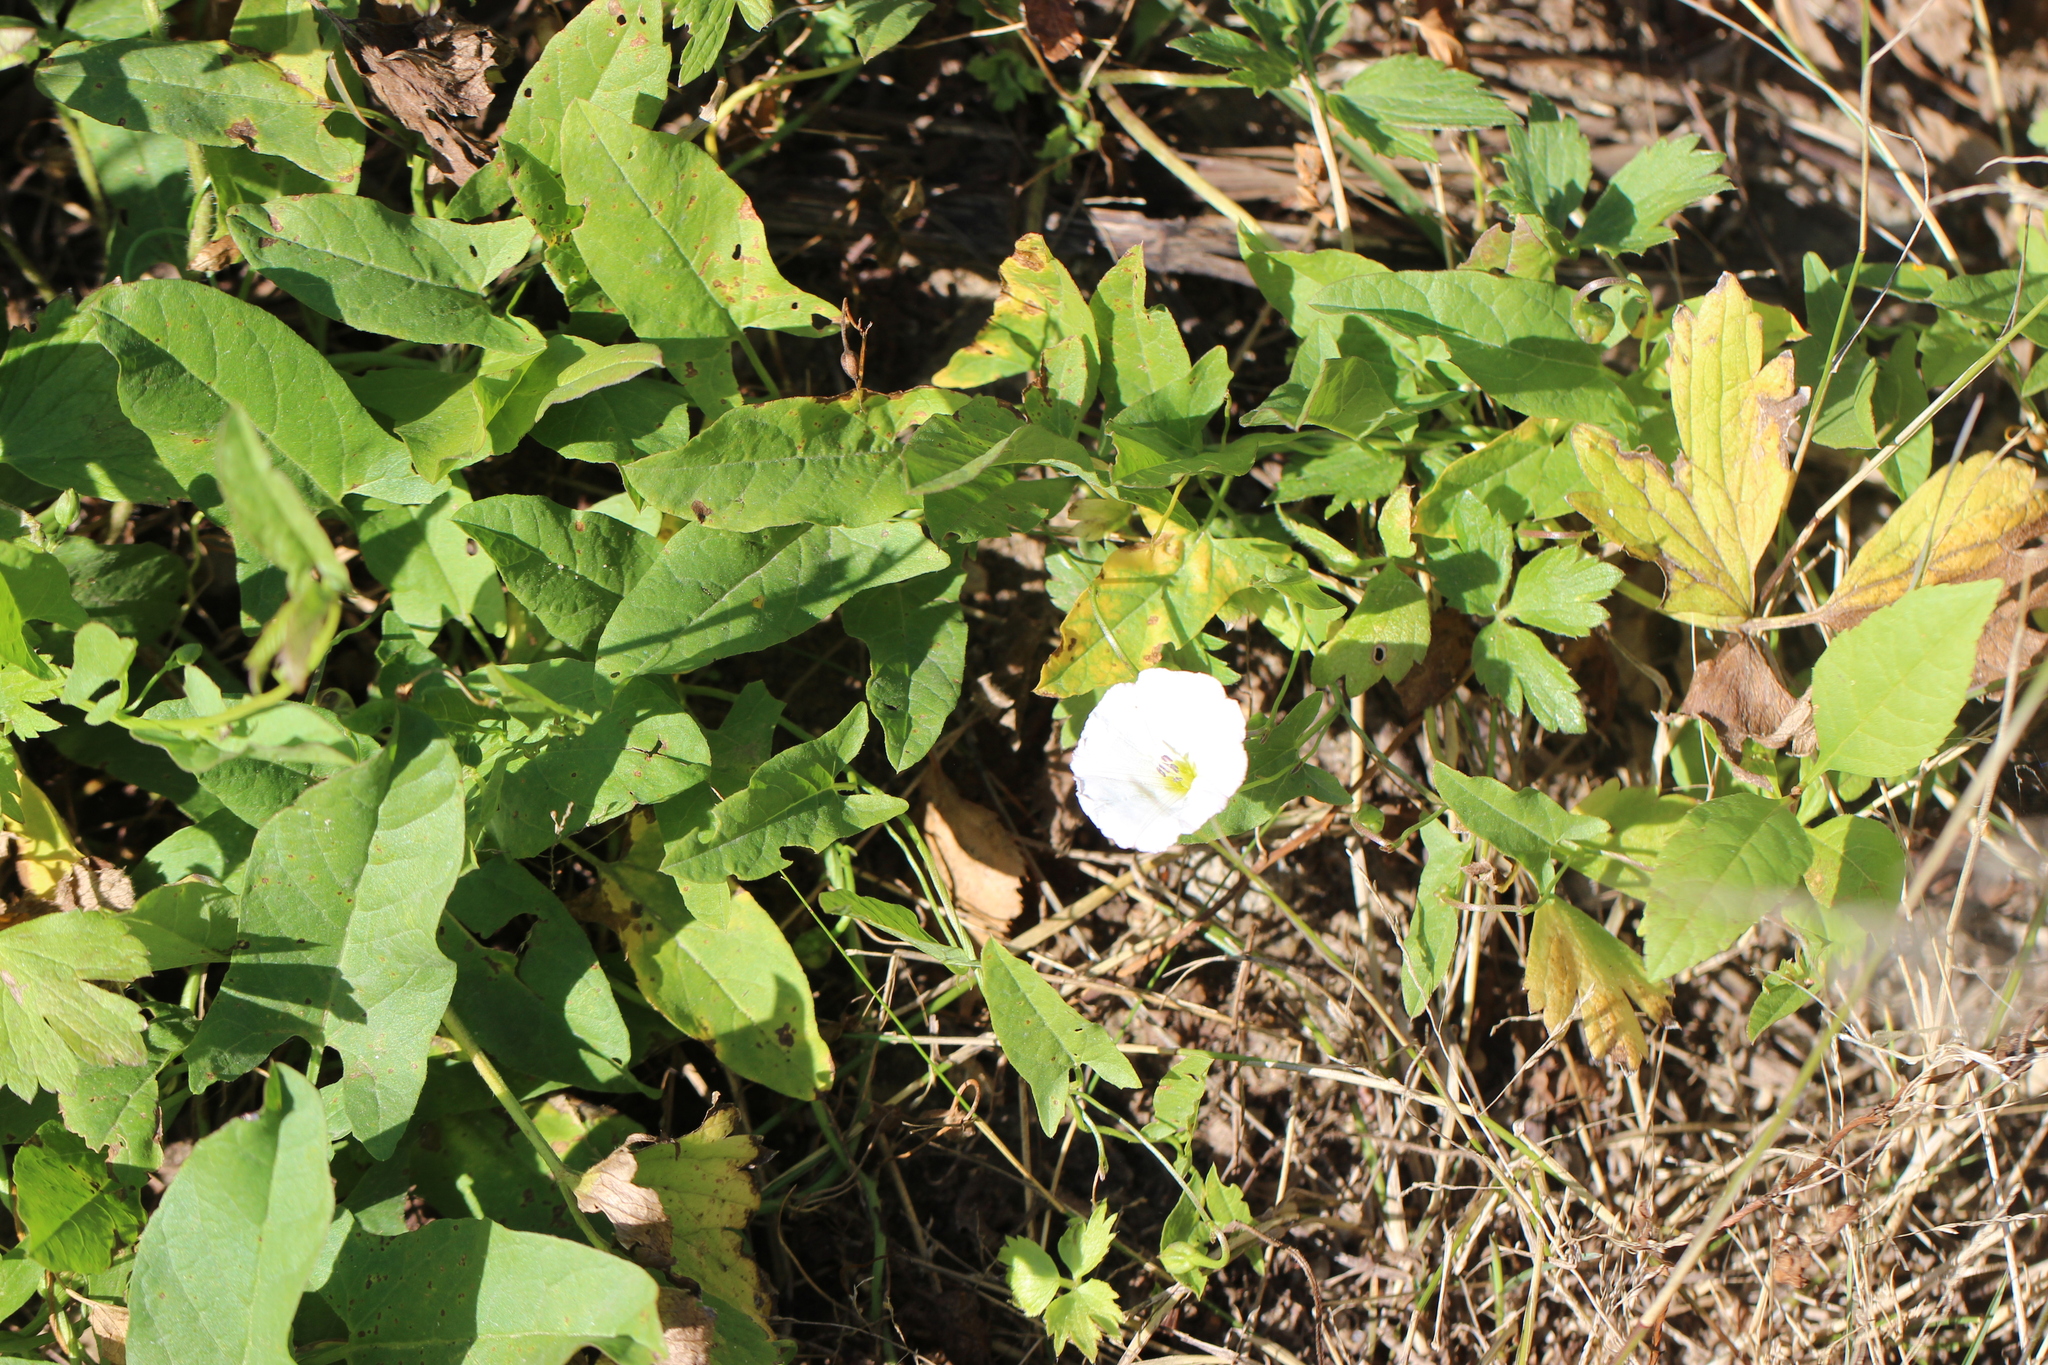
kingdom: Plantae
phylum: Tracheophyta
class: Magnoliopsida
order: Solanales
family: Convolvulaceae
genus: Convolvulus
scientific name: Convolvulus arvensis
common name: Field bindweed
